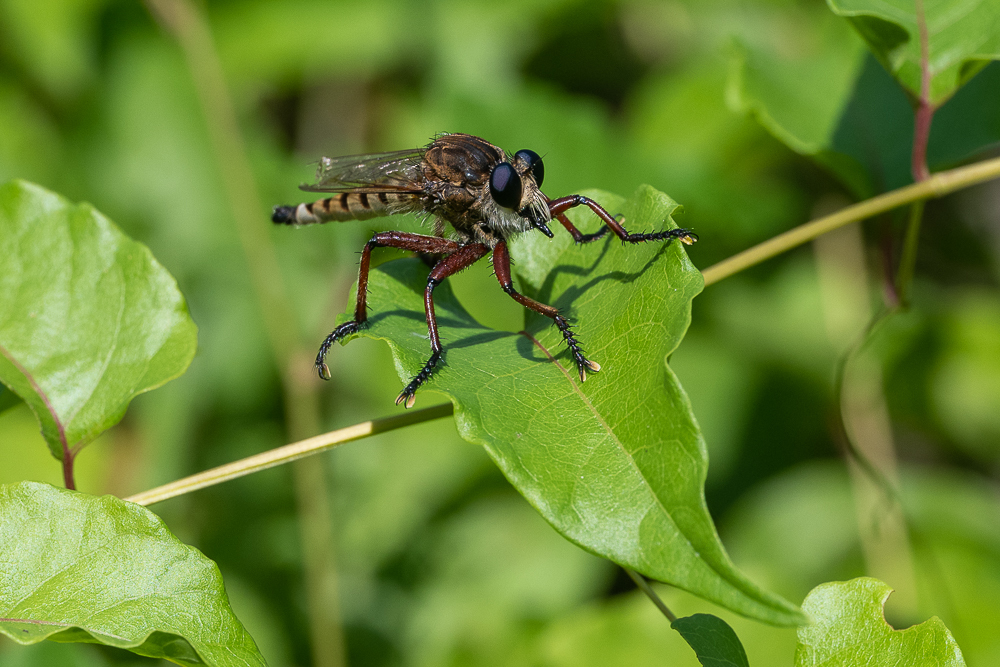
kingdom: Animalia
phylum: Arthropoda
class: Insecta
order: Diptera
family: Asilidae
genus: Promachus
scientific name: Promachus hinei
